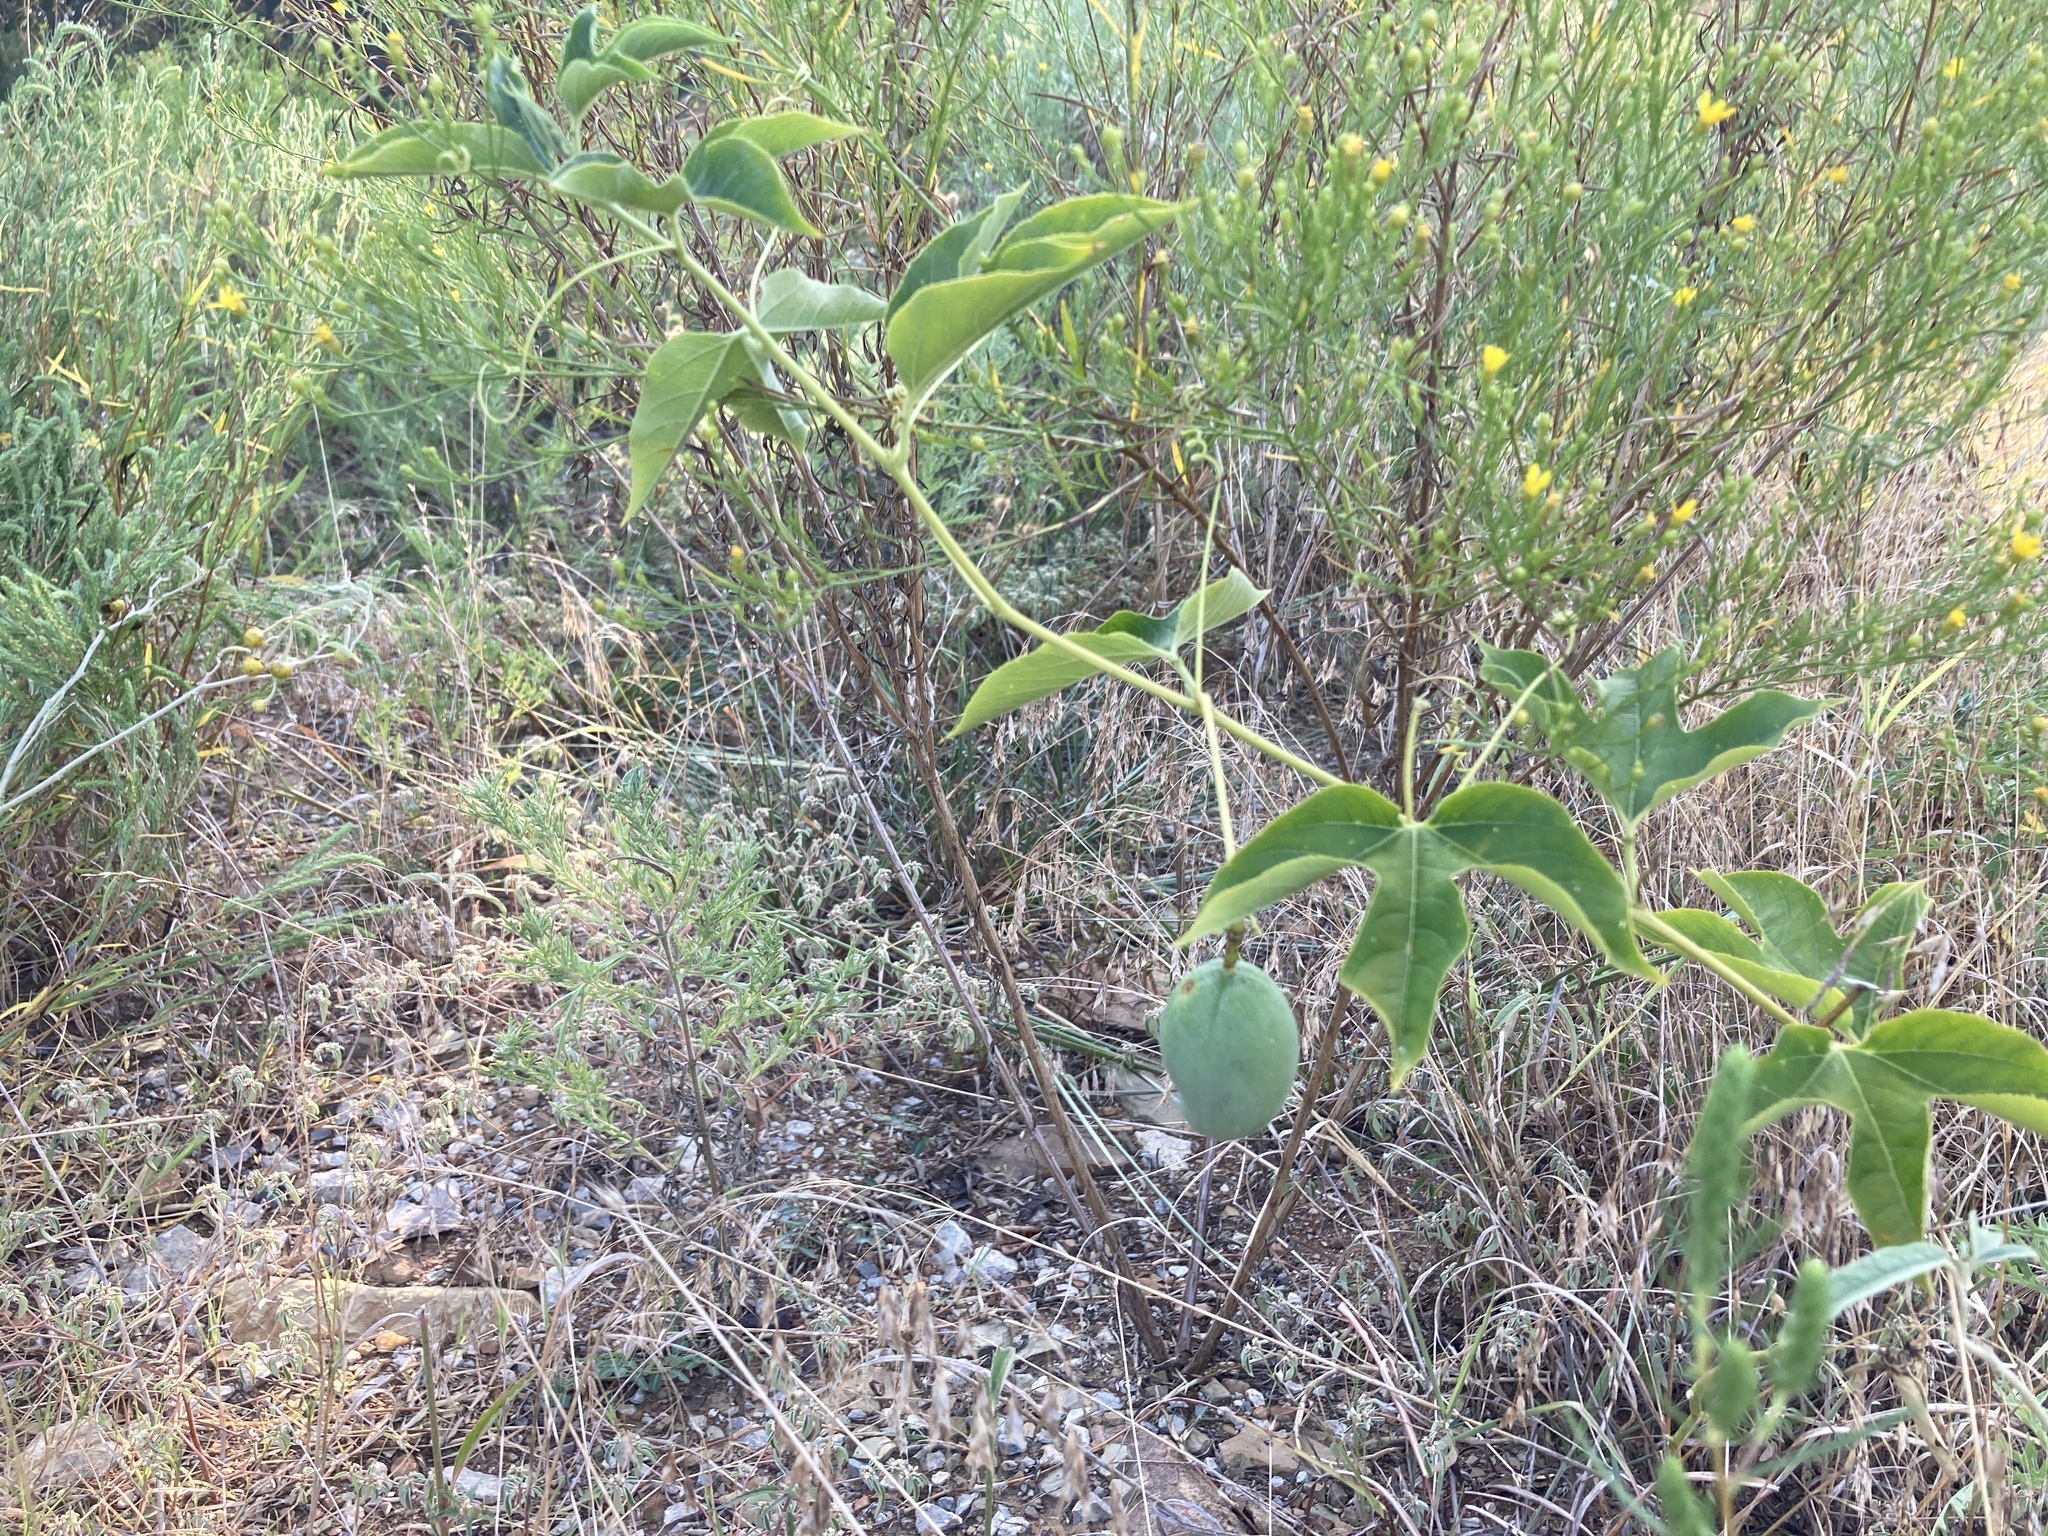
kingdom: Plantae
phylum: Tracheophyta
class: Magnoliopsida
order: Malpighiales
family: Passifloraceae
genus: Passiflora
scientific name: Passiflora incarnata
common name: Apricot-vine
